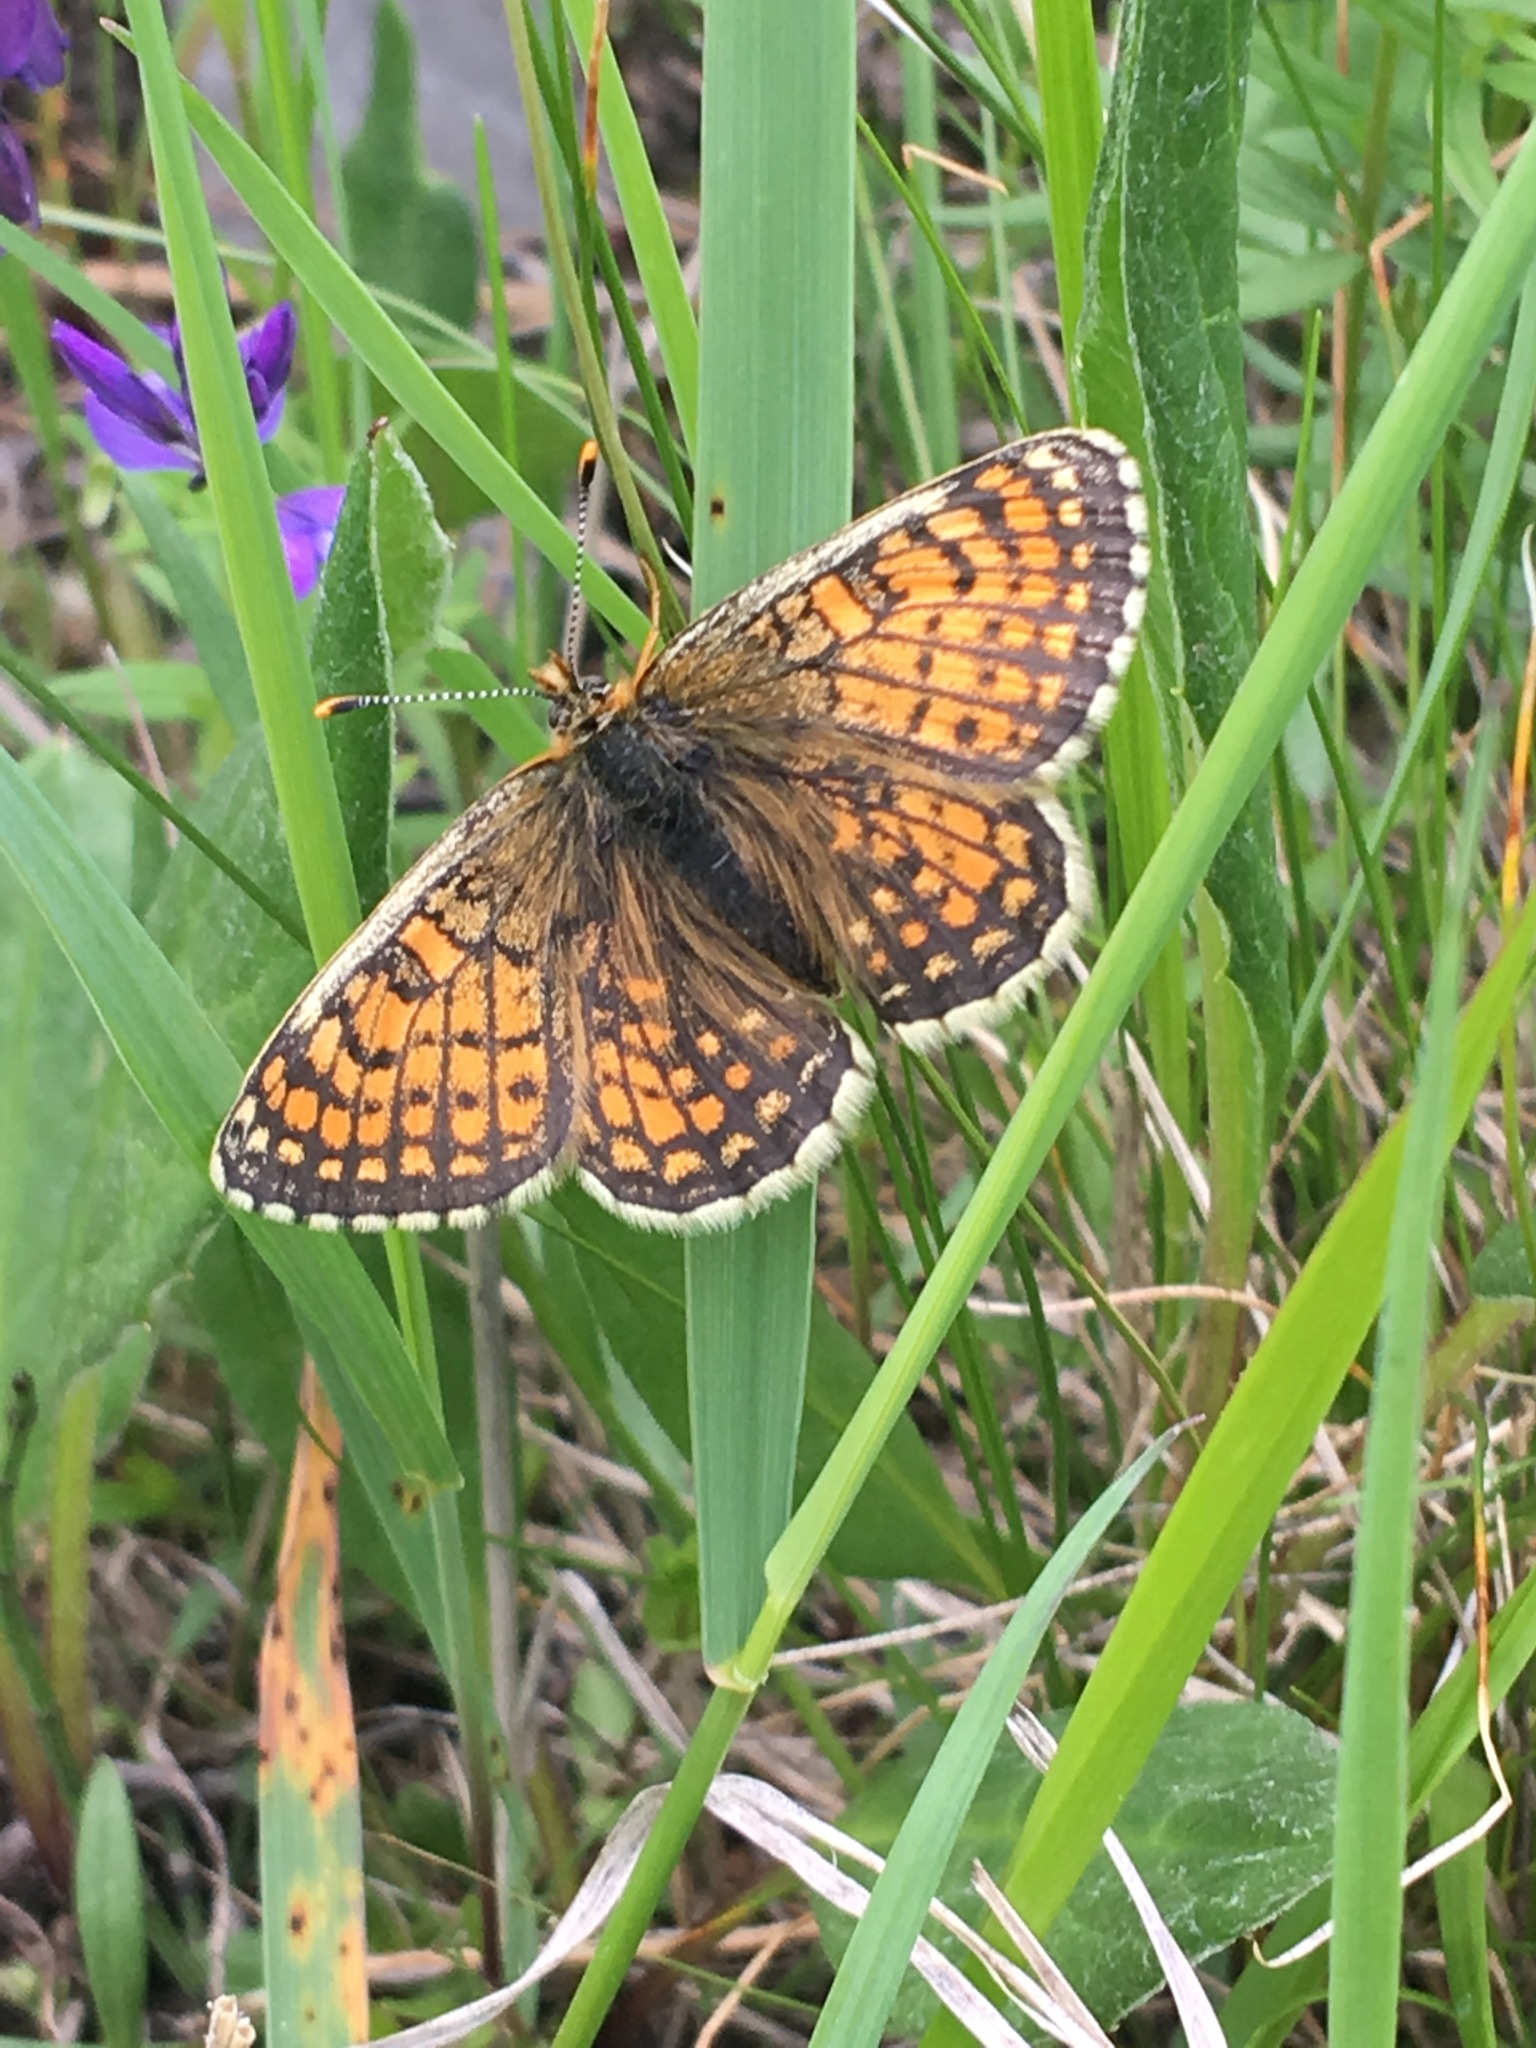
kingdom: Animalia
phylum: Arthropoda
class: Insecta
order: Lepidoptera
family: Nymphalidae
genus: Melitaea
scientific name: Melitaea arcesia
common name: Blackvein fritillary
